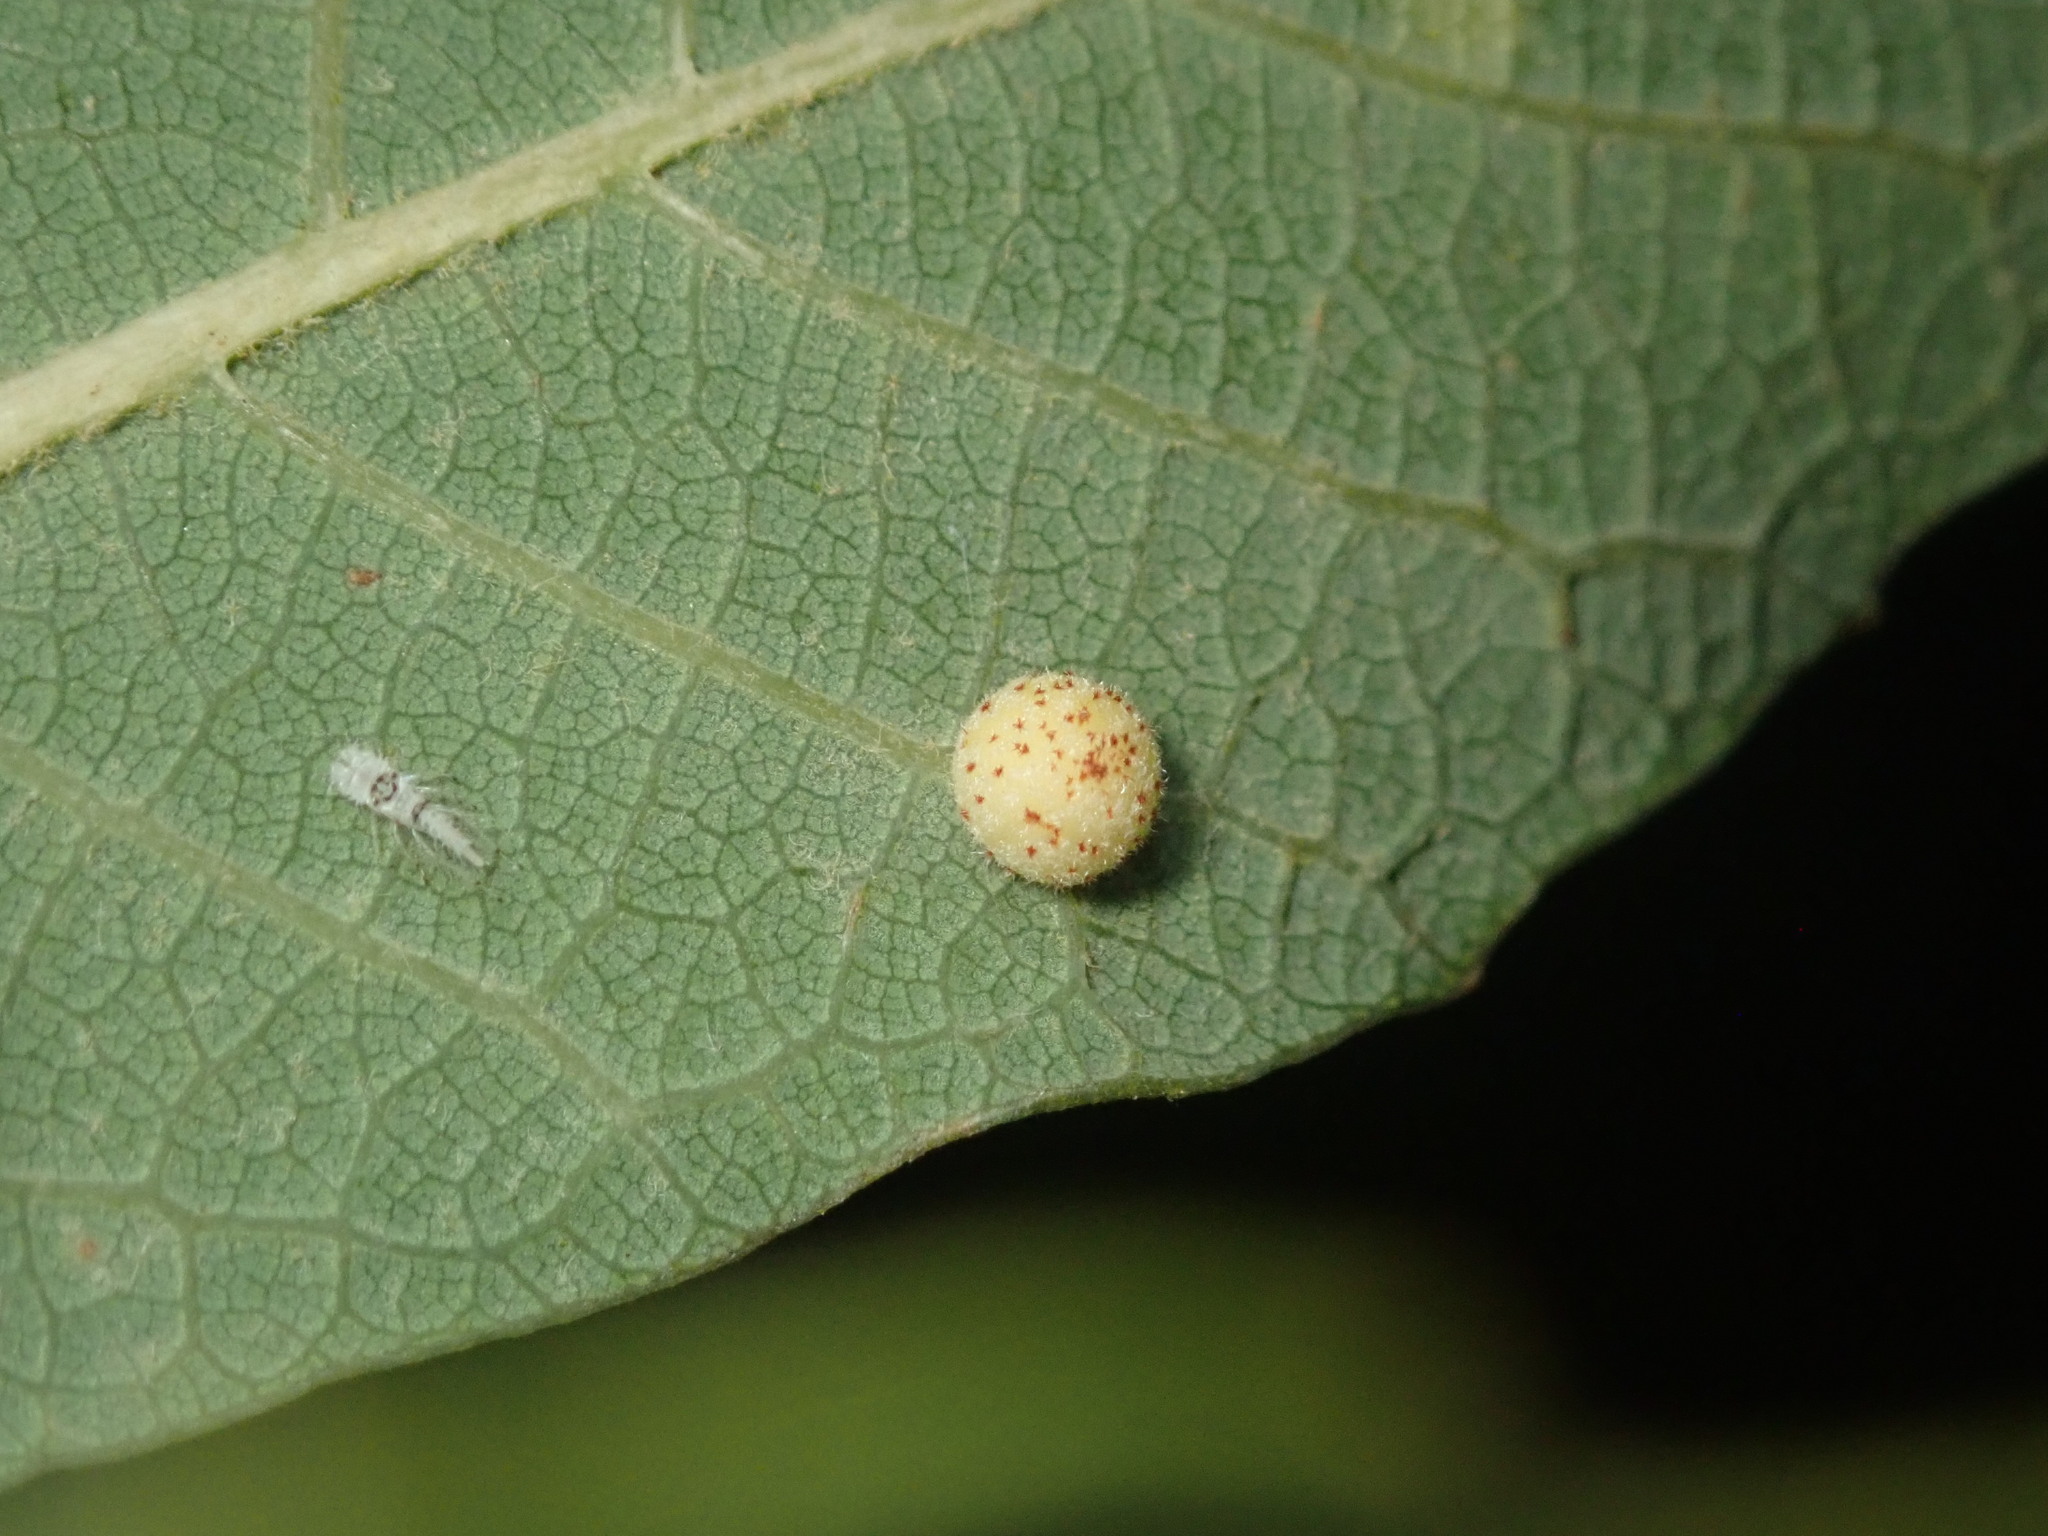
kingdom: Animalia
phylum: Arthropoda
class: Insecta
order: Hymenoptera
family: Cynipidae
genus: Cynips
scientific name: Cynips Antron tomkursari
